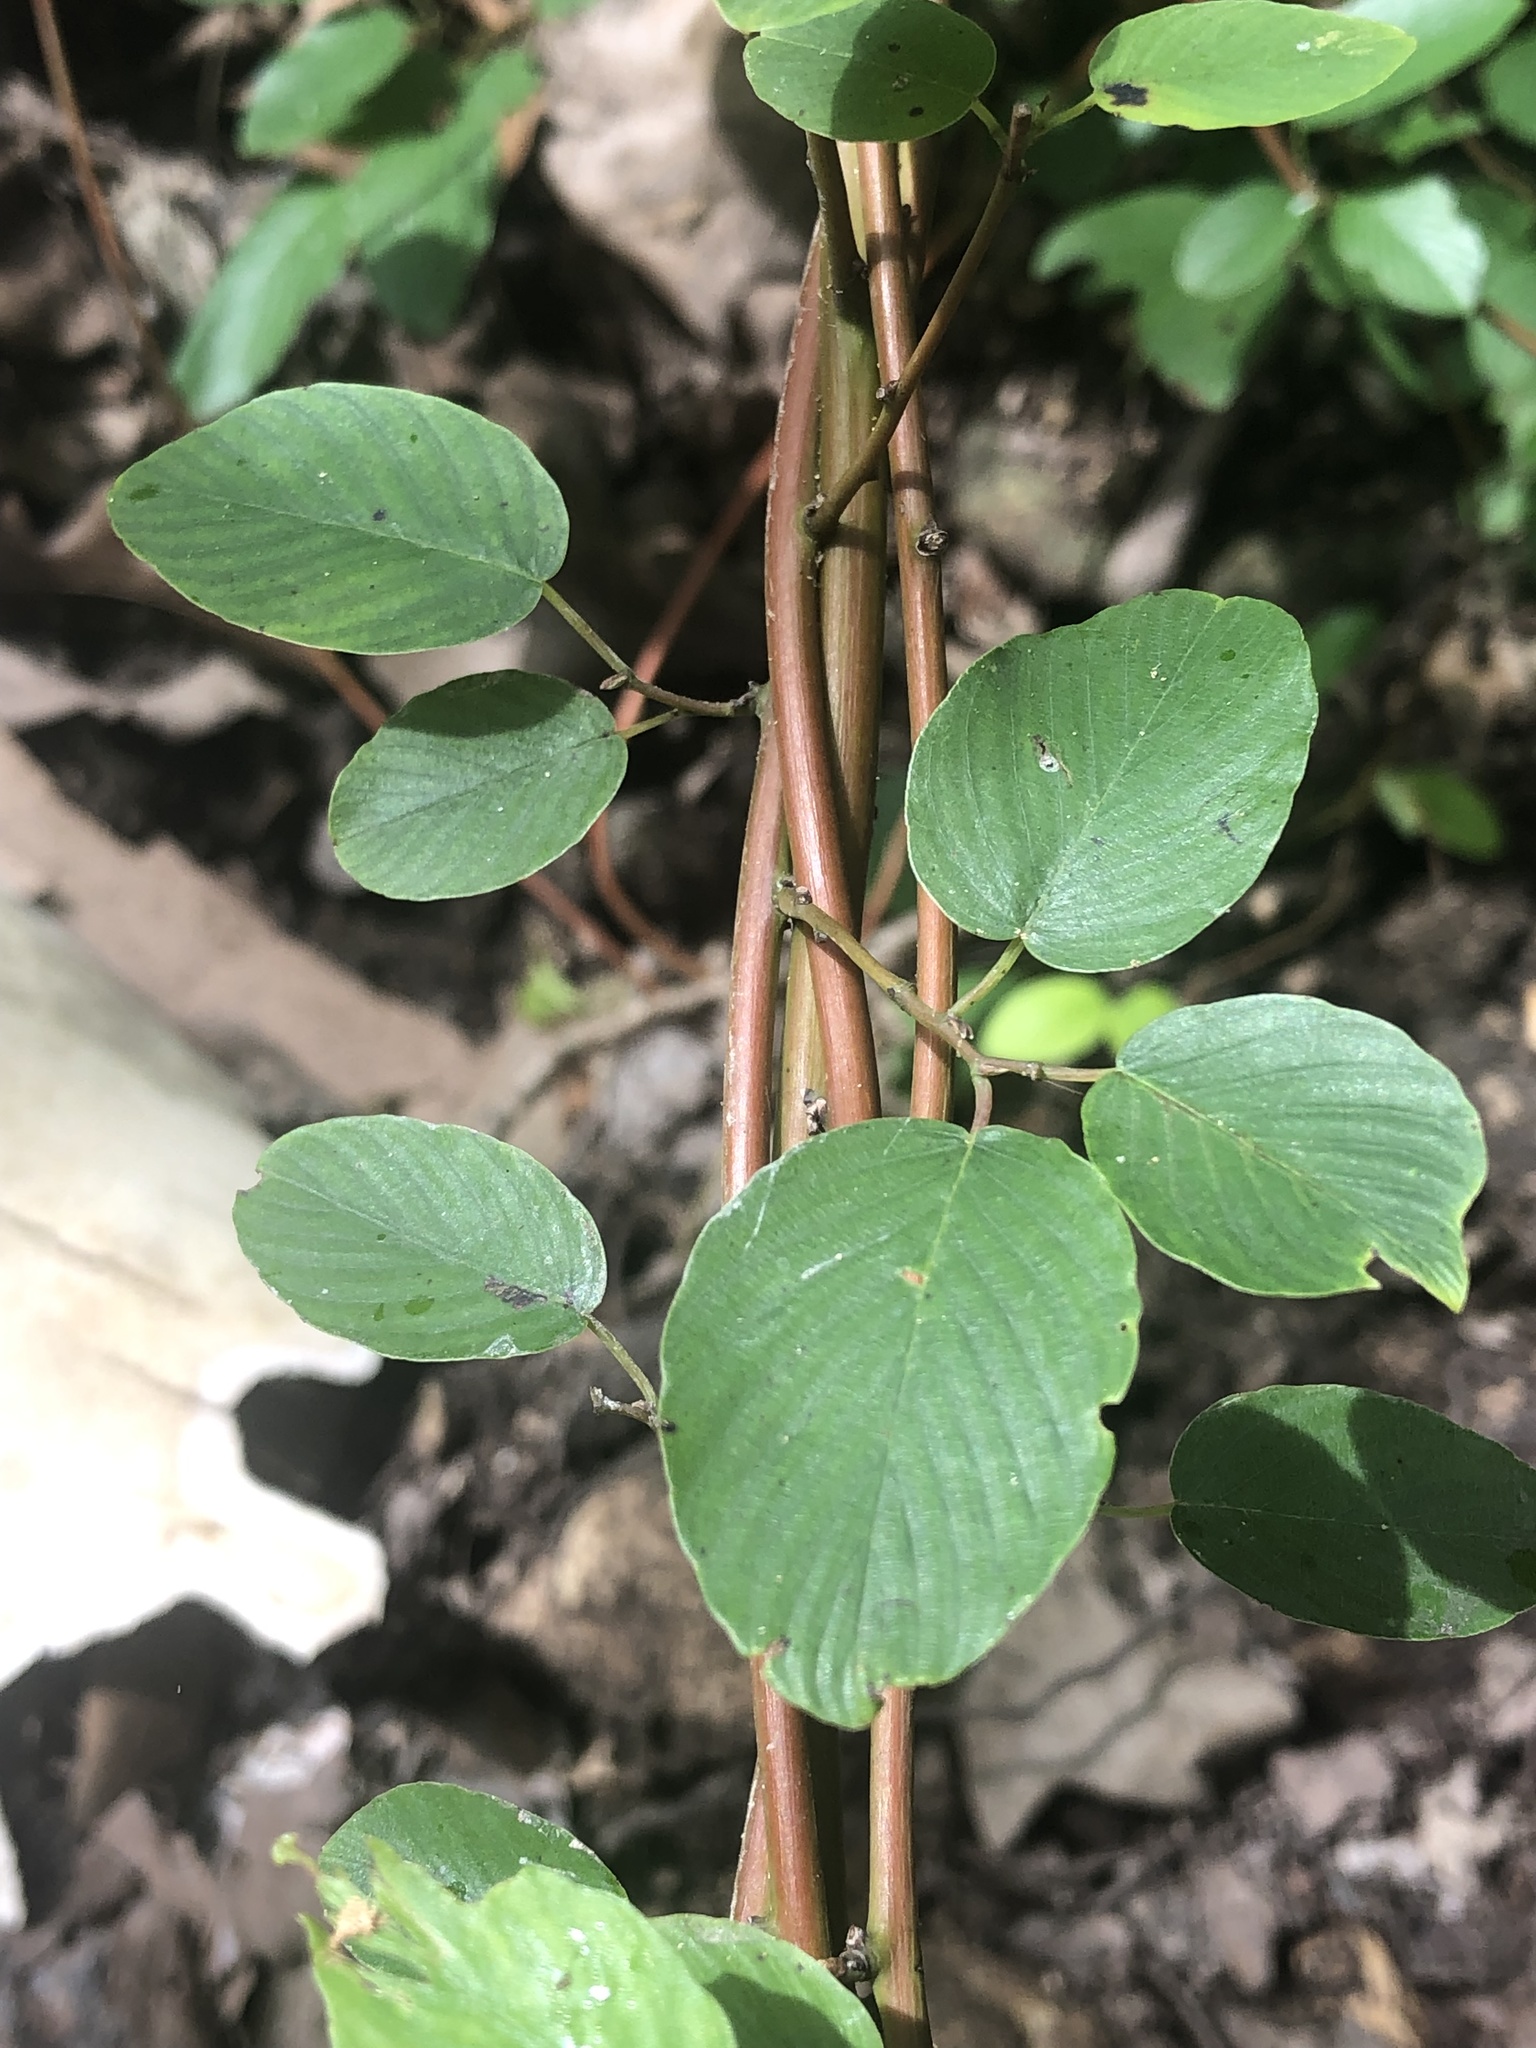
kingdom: Plantae
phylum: Tracheophyta
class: Magnoliopsida
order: Rosales
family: Rhamnaceae
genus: Berchemia
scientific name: Berchemia scandens
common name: Supplejack
